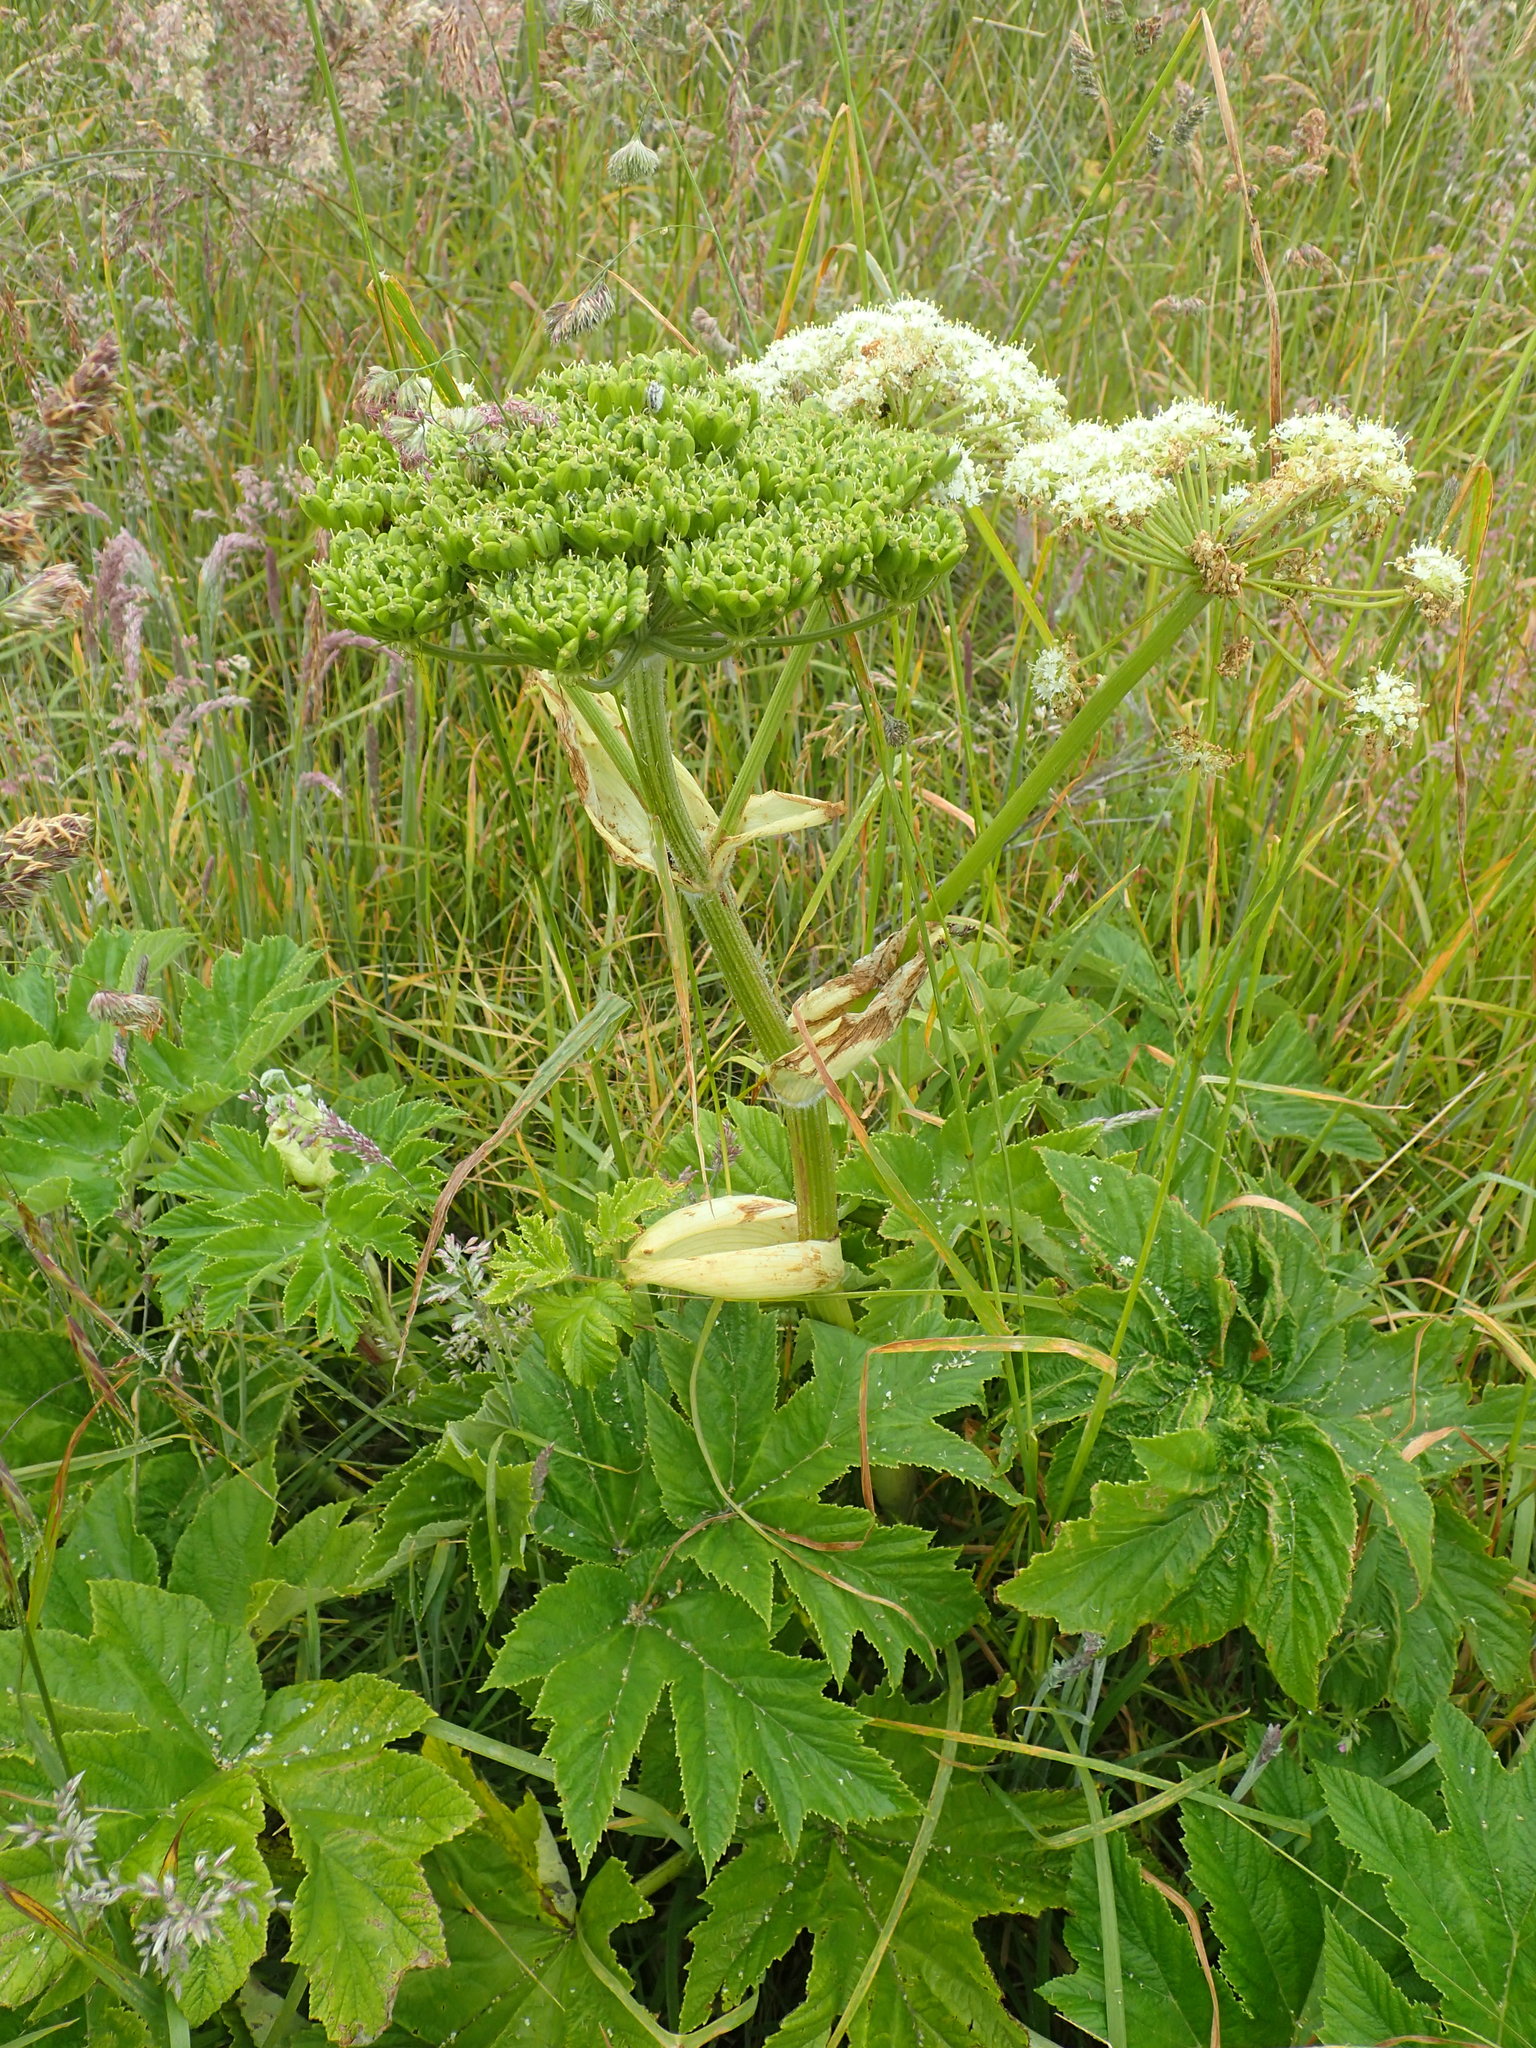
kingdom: Plantae
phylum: Tracheophyta
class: Magnoliopsida
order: Apiales
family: Apiaceae
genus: Heracleum
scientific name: Heracleum maximum
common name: American cow parsnip
